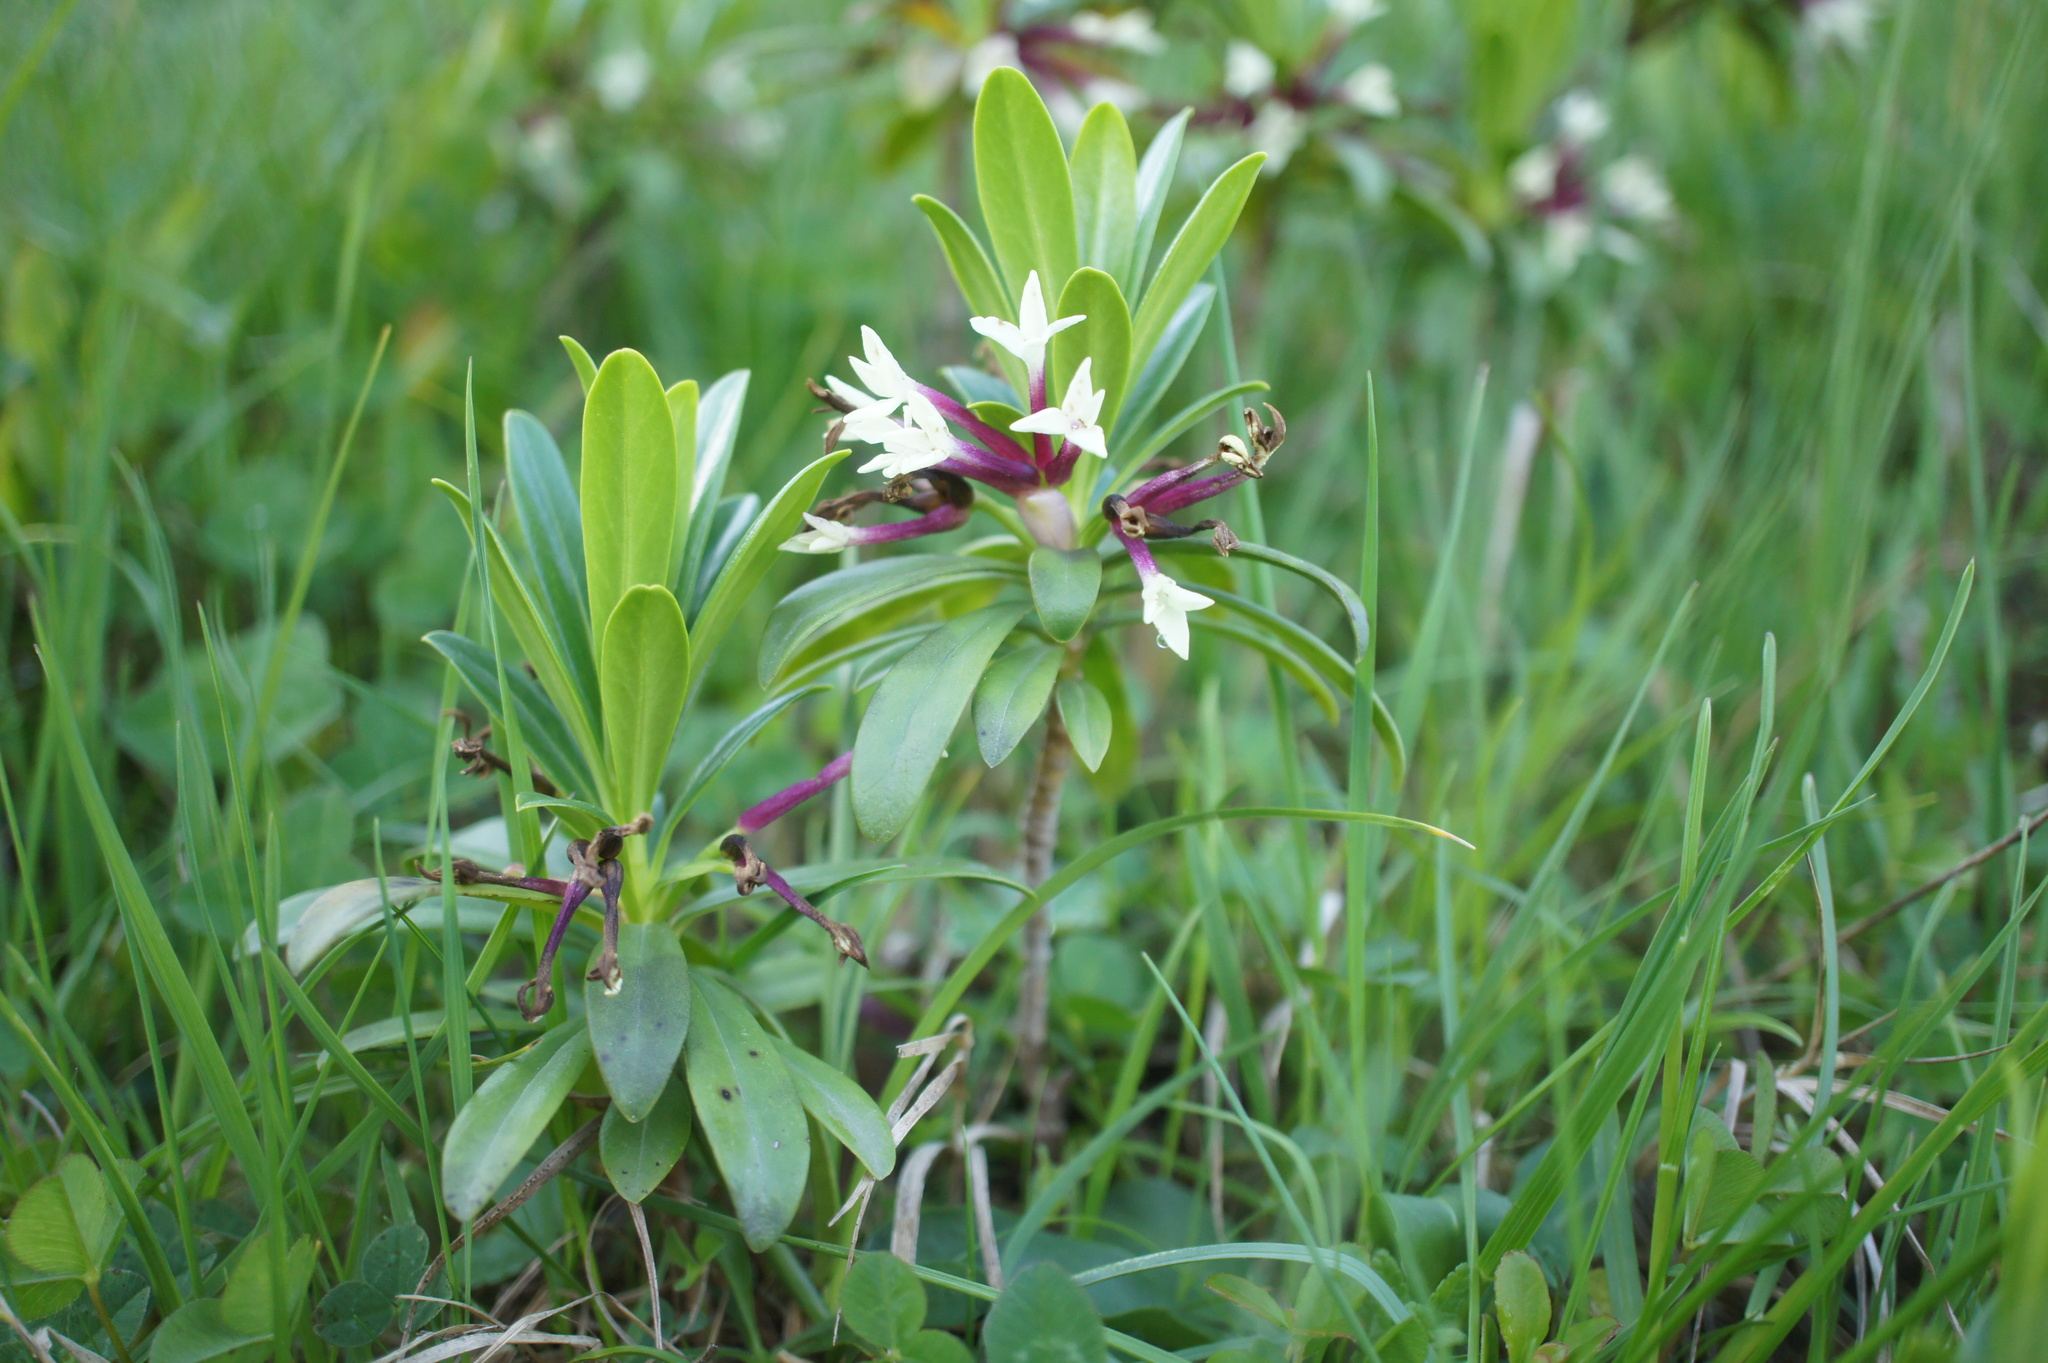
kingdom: Plantae
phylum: Tracheophyta
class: Magnoliopsida
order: Malvales
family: Thymelaeaceae
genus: Daphne
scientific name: Daphne glomerata
